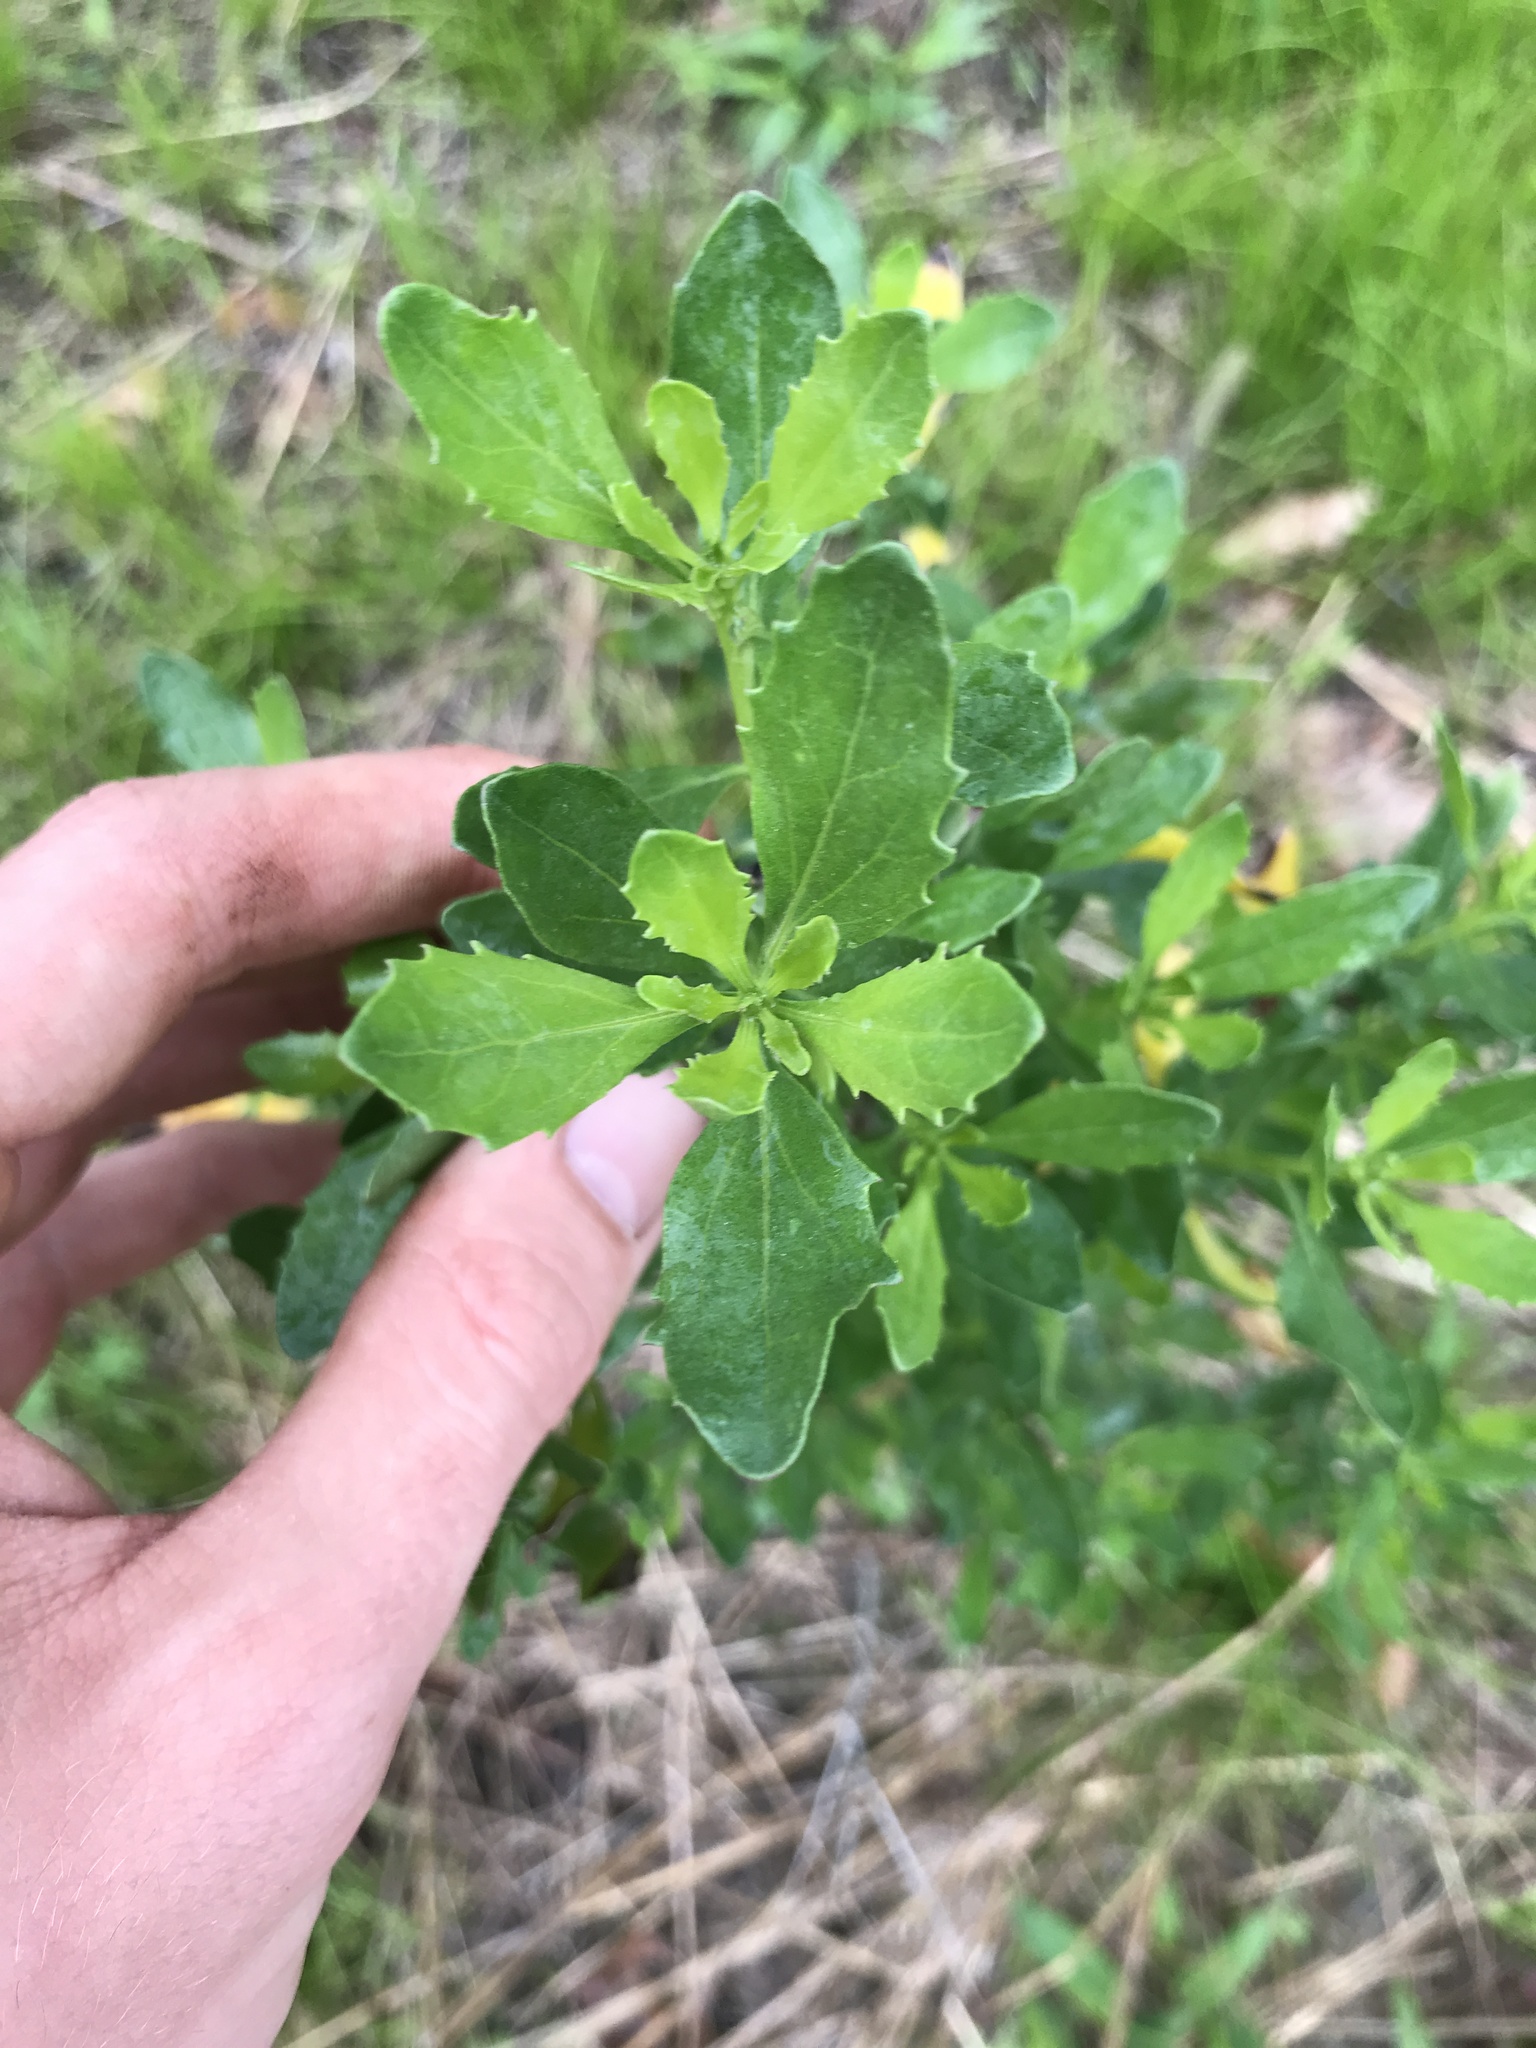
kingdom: Plantae
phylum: Tracheophyta
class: Magnoliopsida
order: Asterales
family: Asteraceae
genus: Baccharis
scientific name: Baccharis halimifolia
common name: Eastern baccharis
